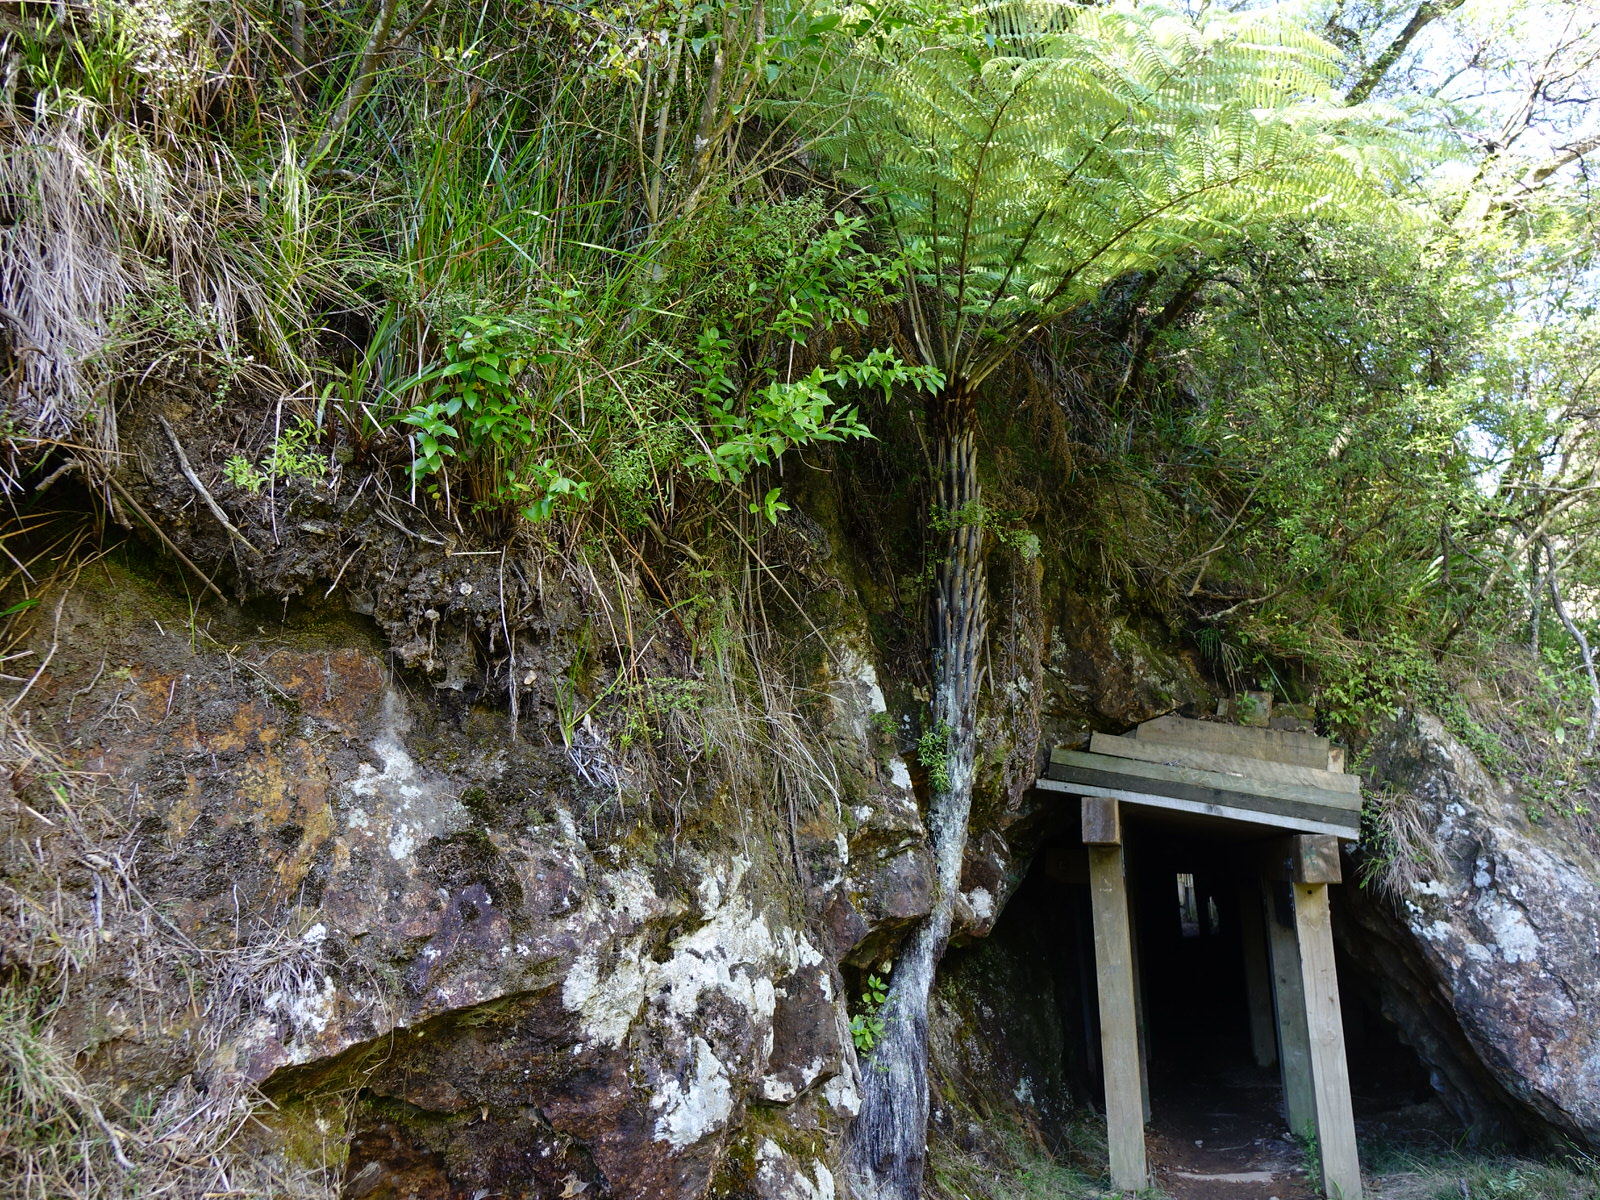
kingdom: Plantae
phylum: Tracheophyta
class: Magnoliopsida
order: Sapindales
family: Rutaceae
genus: Leionema
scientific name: Leionema nudum
